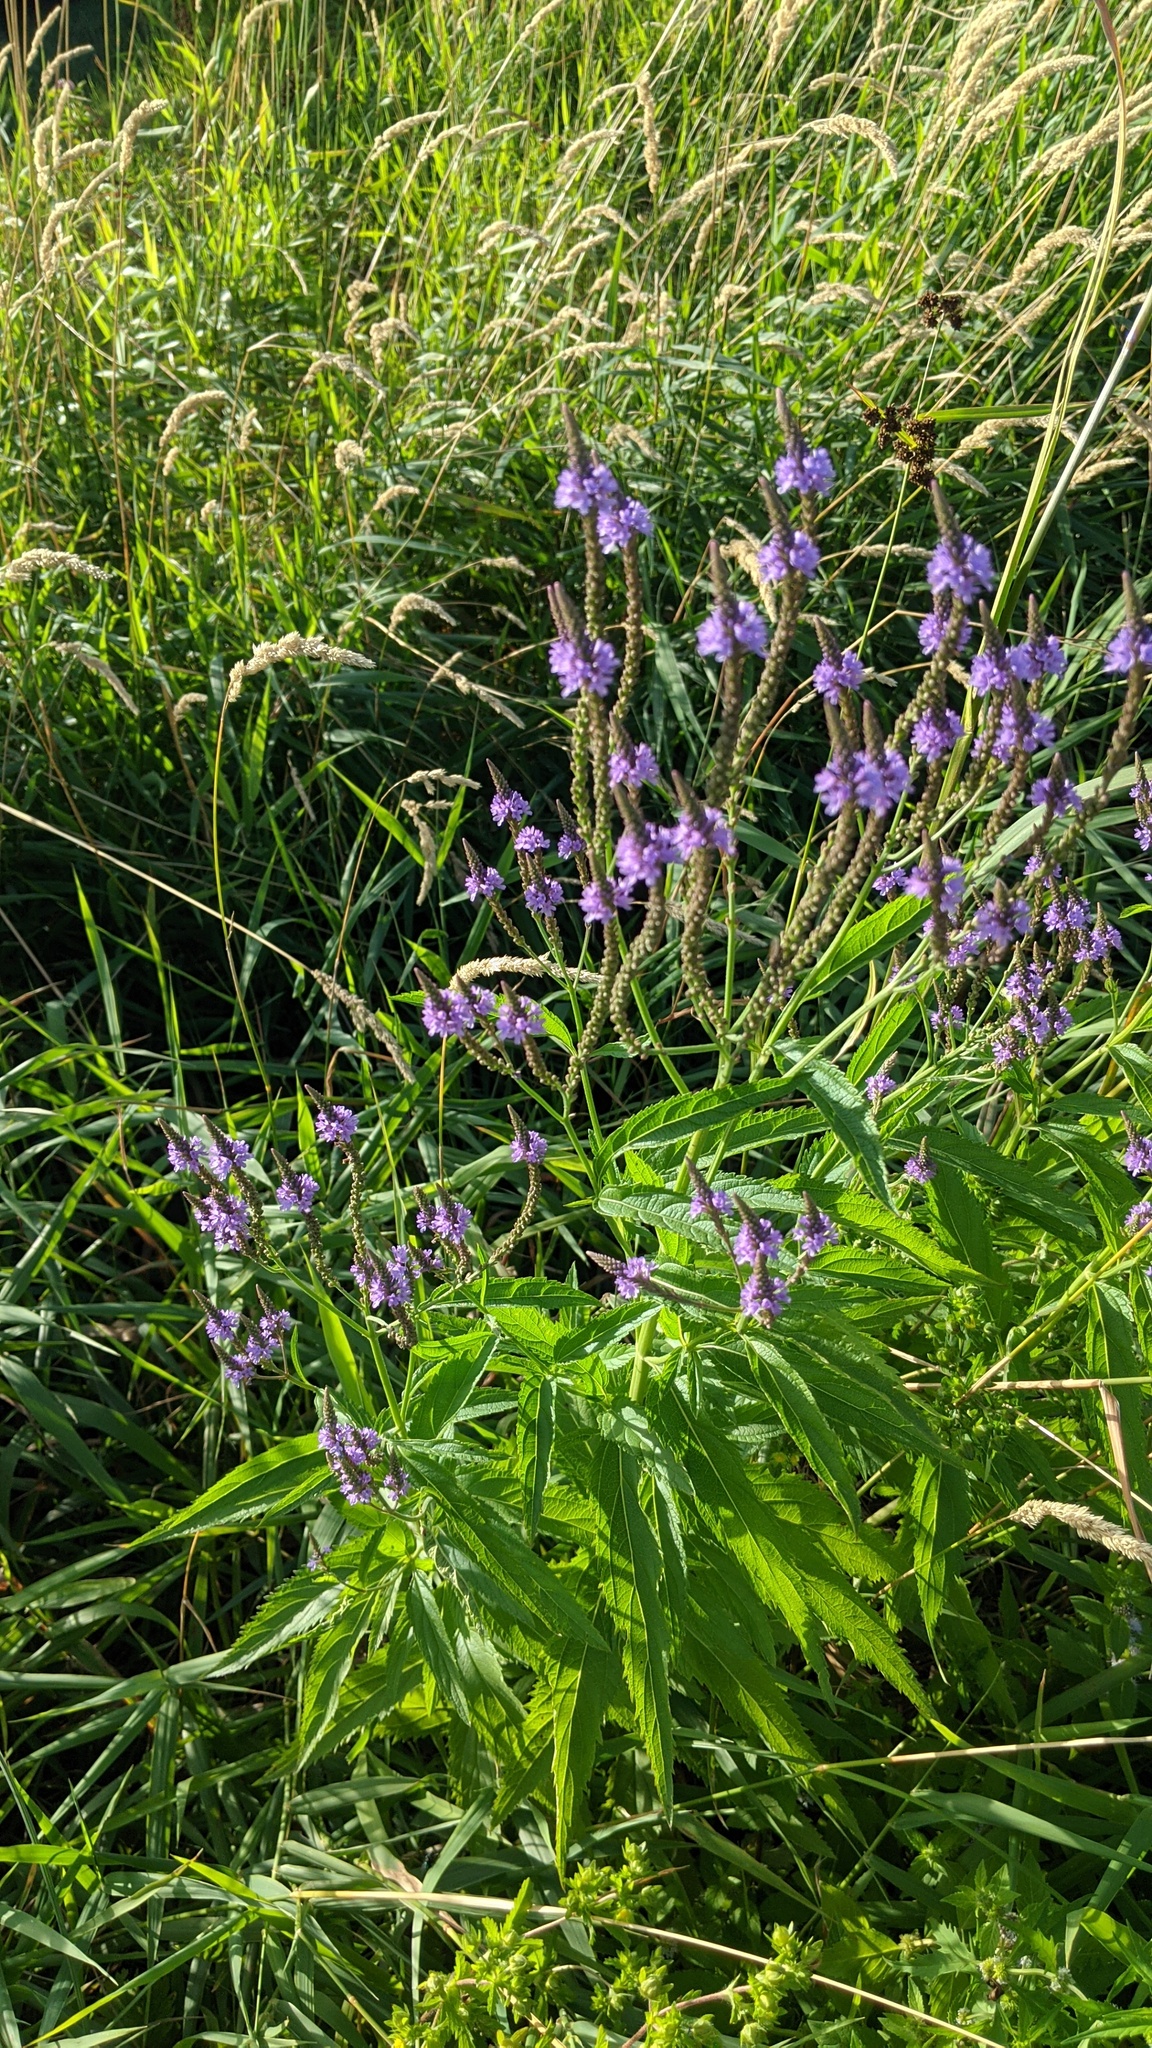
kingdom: Plantae
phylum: Tracheophyta
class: Magnoliopsida
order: Lamiales
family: Verbenaceae
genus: Verbena
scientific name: Verbena hastata
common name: American blue vervain
